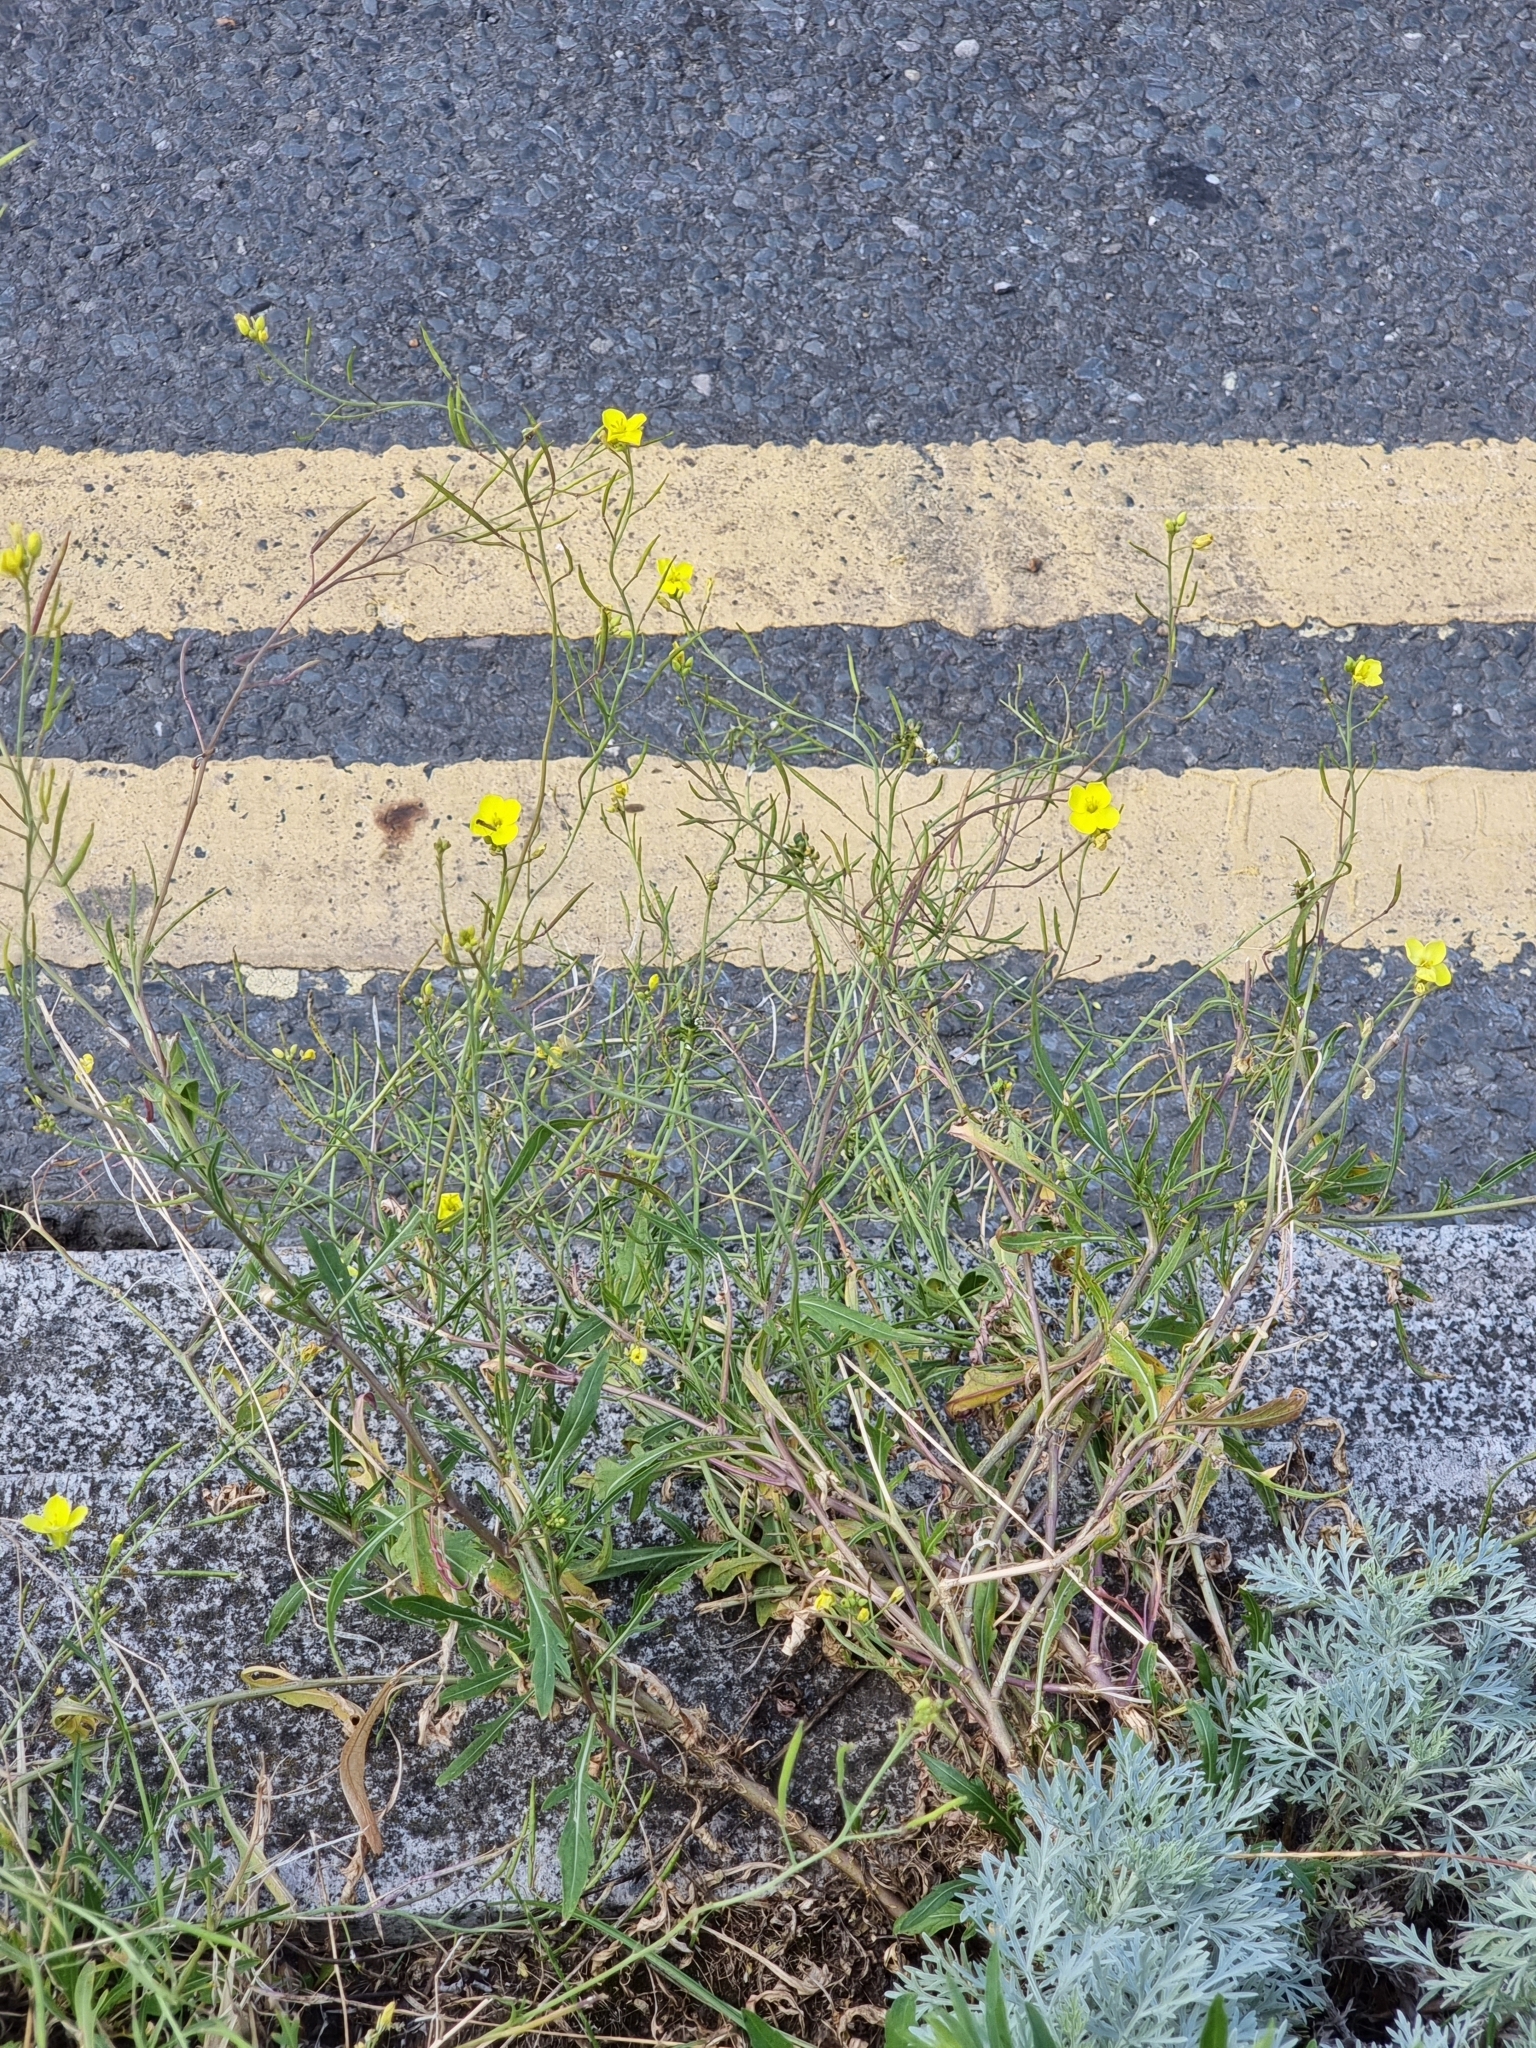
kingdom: Plantae
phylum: Tracheophyta
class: Magnoliopsida
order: Brassicales
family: Brassicaceae
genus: Diplotaxis
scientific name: Diplotaxis tenuifolia
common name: Perennial wall-rocket
